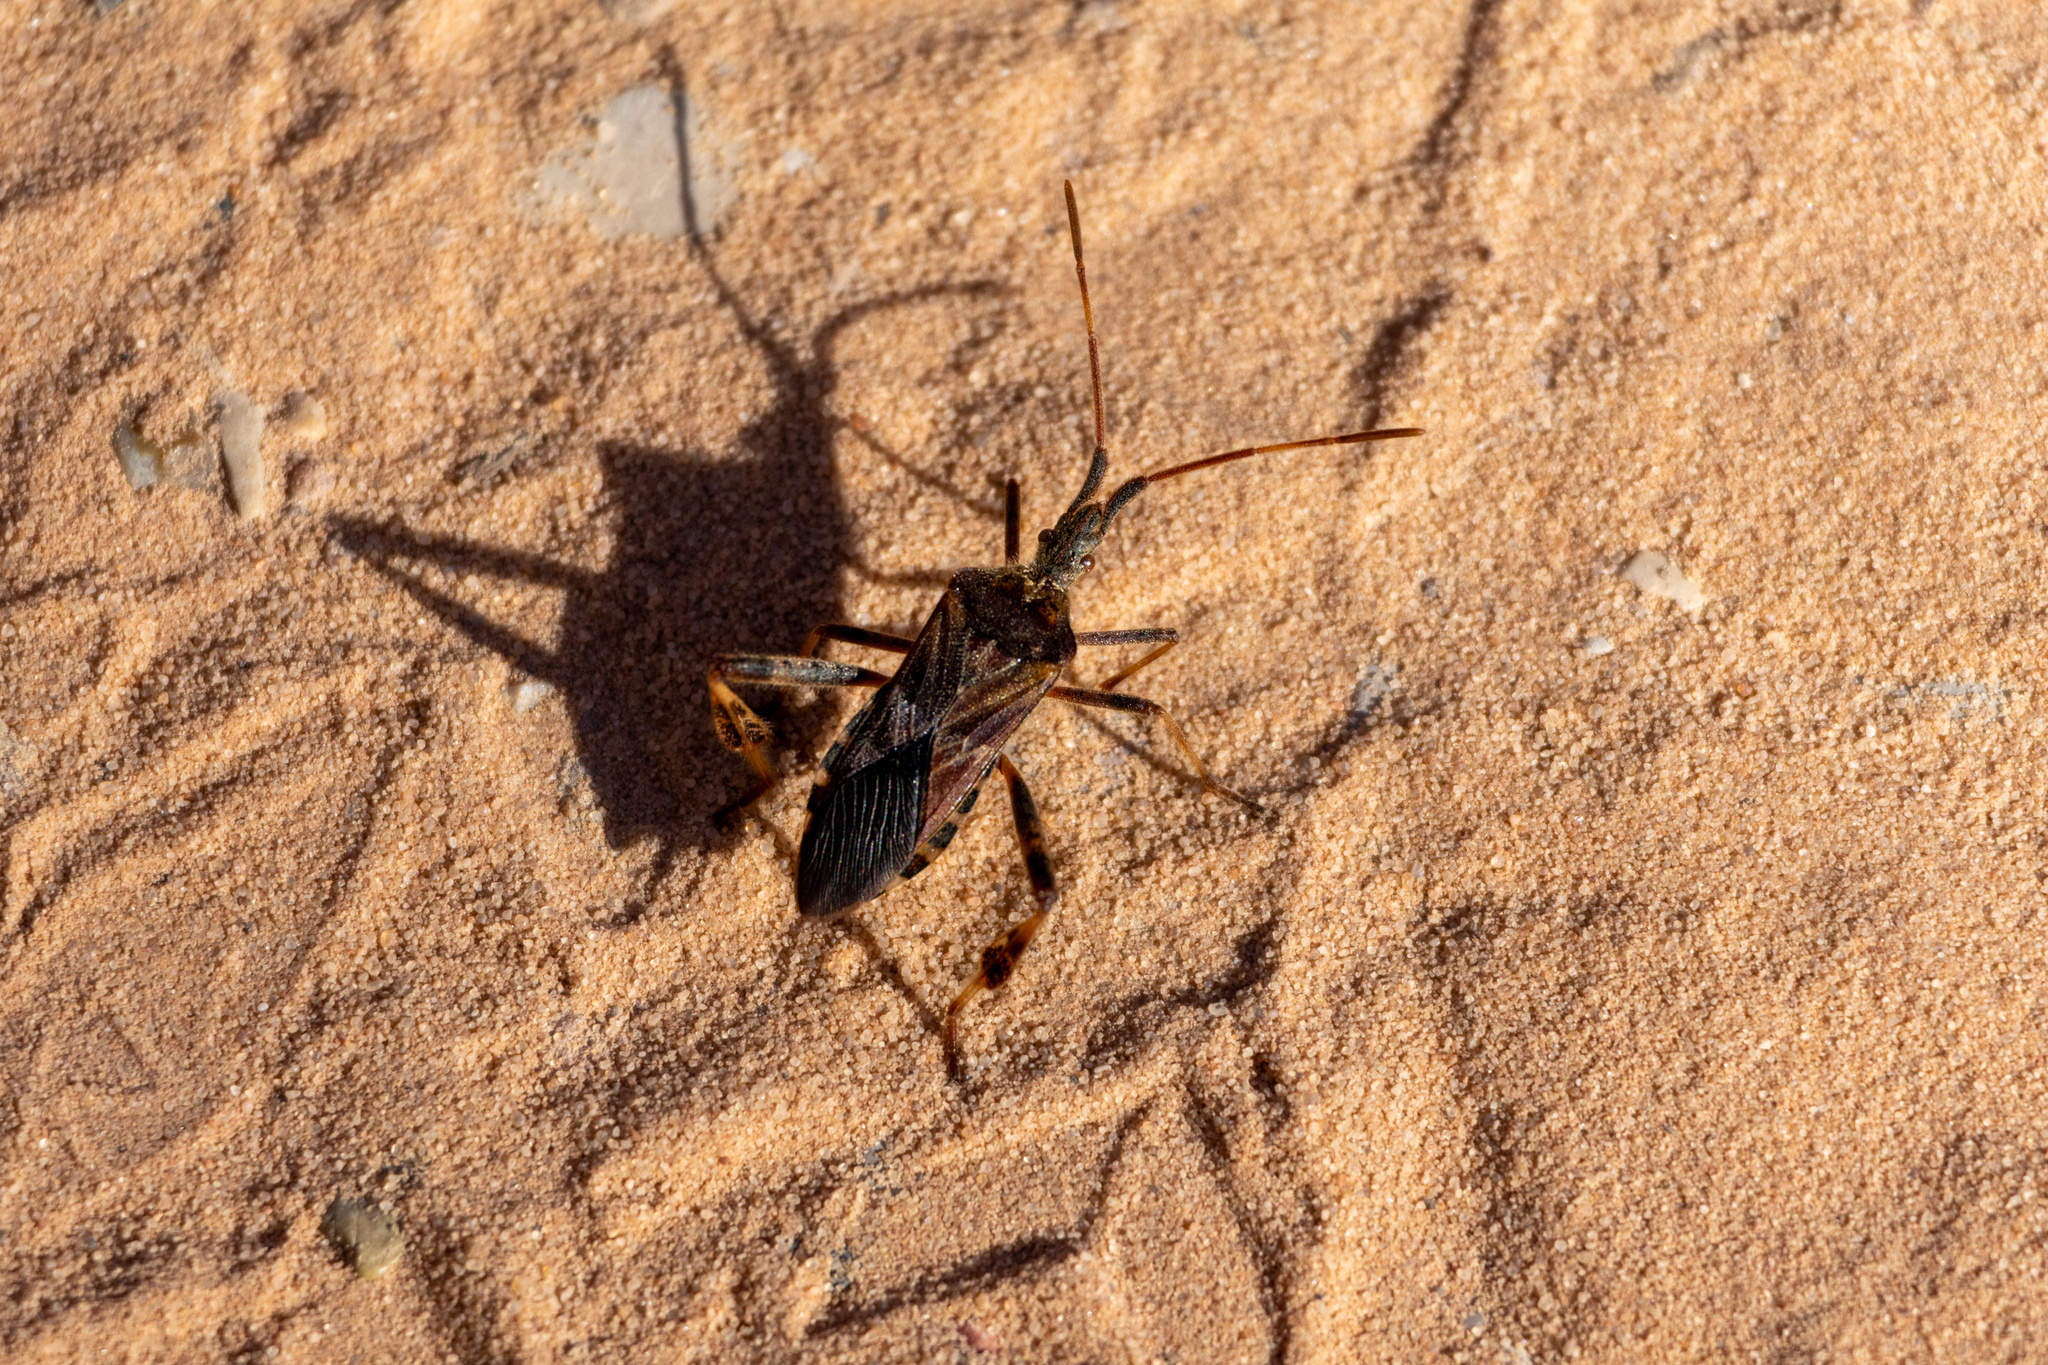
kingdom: Animalia
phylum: Arthropoda
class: Insecta
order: Hemiptera
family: Coreidae
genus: Leptoglossus
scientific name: Leptoglossus occidentalis
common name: Western conifer-seed bug
